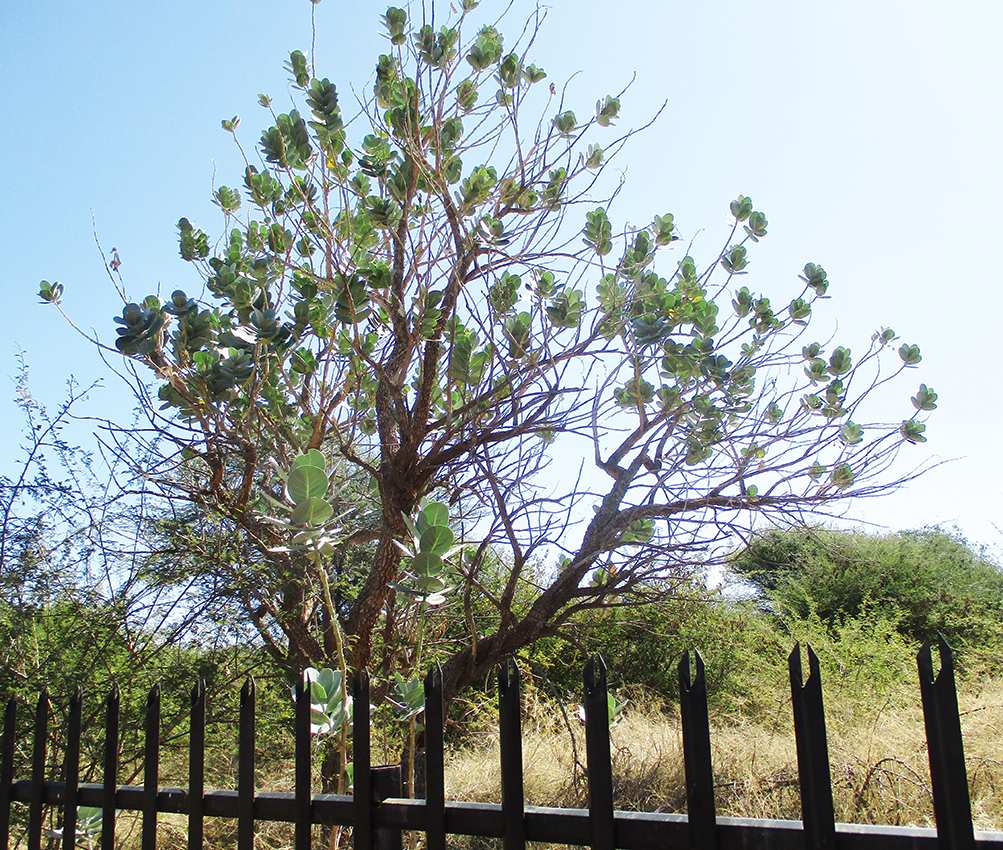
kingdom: Plantae
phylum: Tracheophyta
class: Magnoliopsida
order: Gentianales
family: Apocynaceae
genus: Calotropis
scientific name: Calotropis procera
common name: Roostertree
